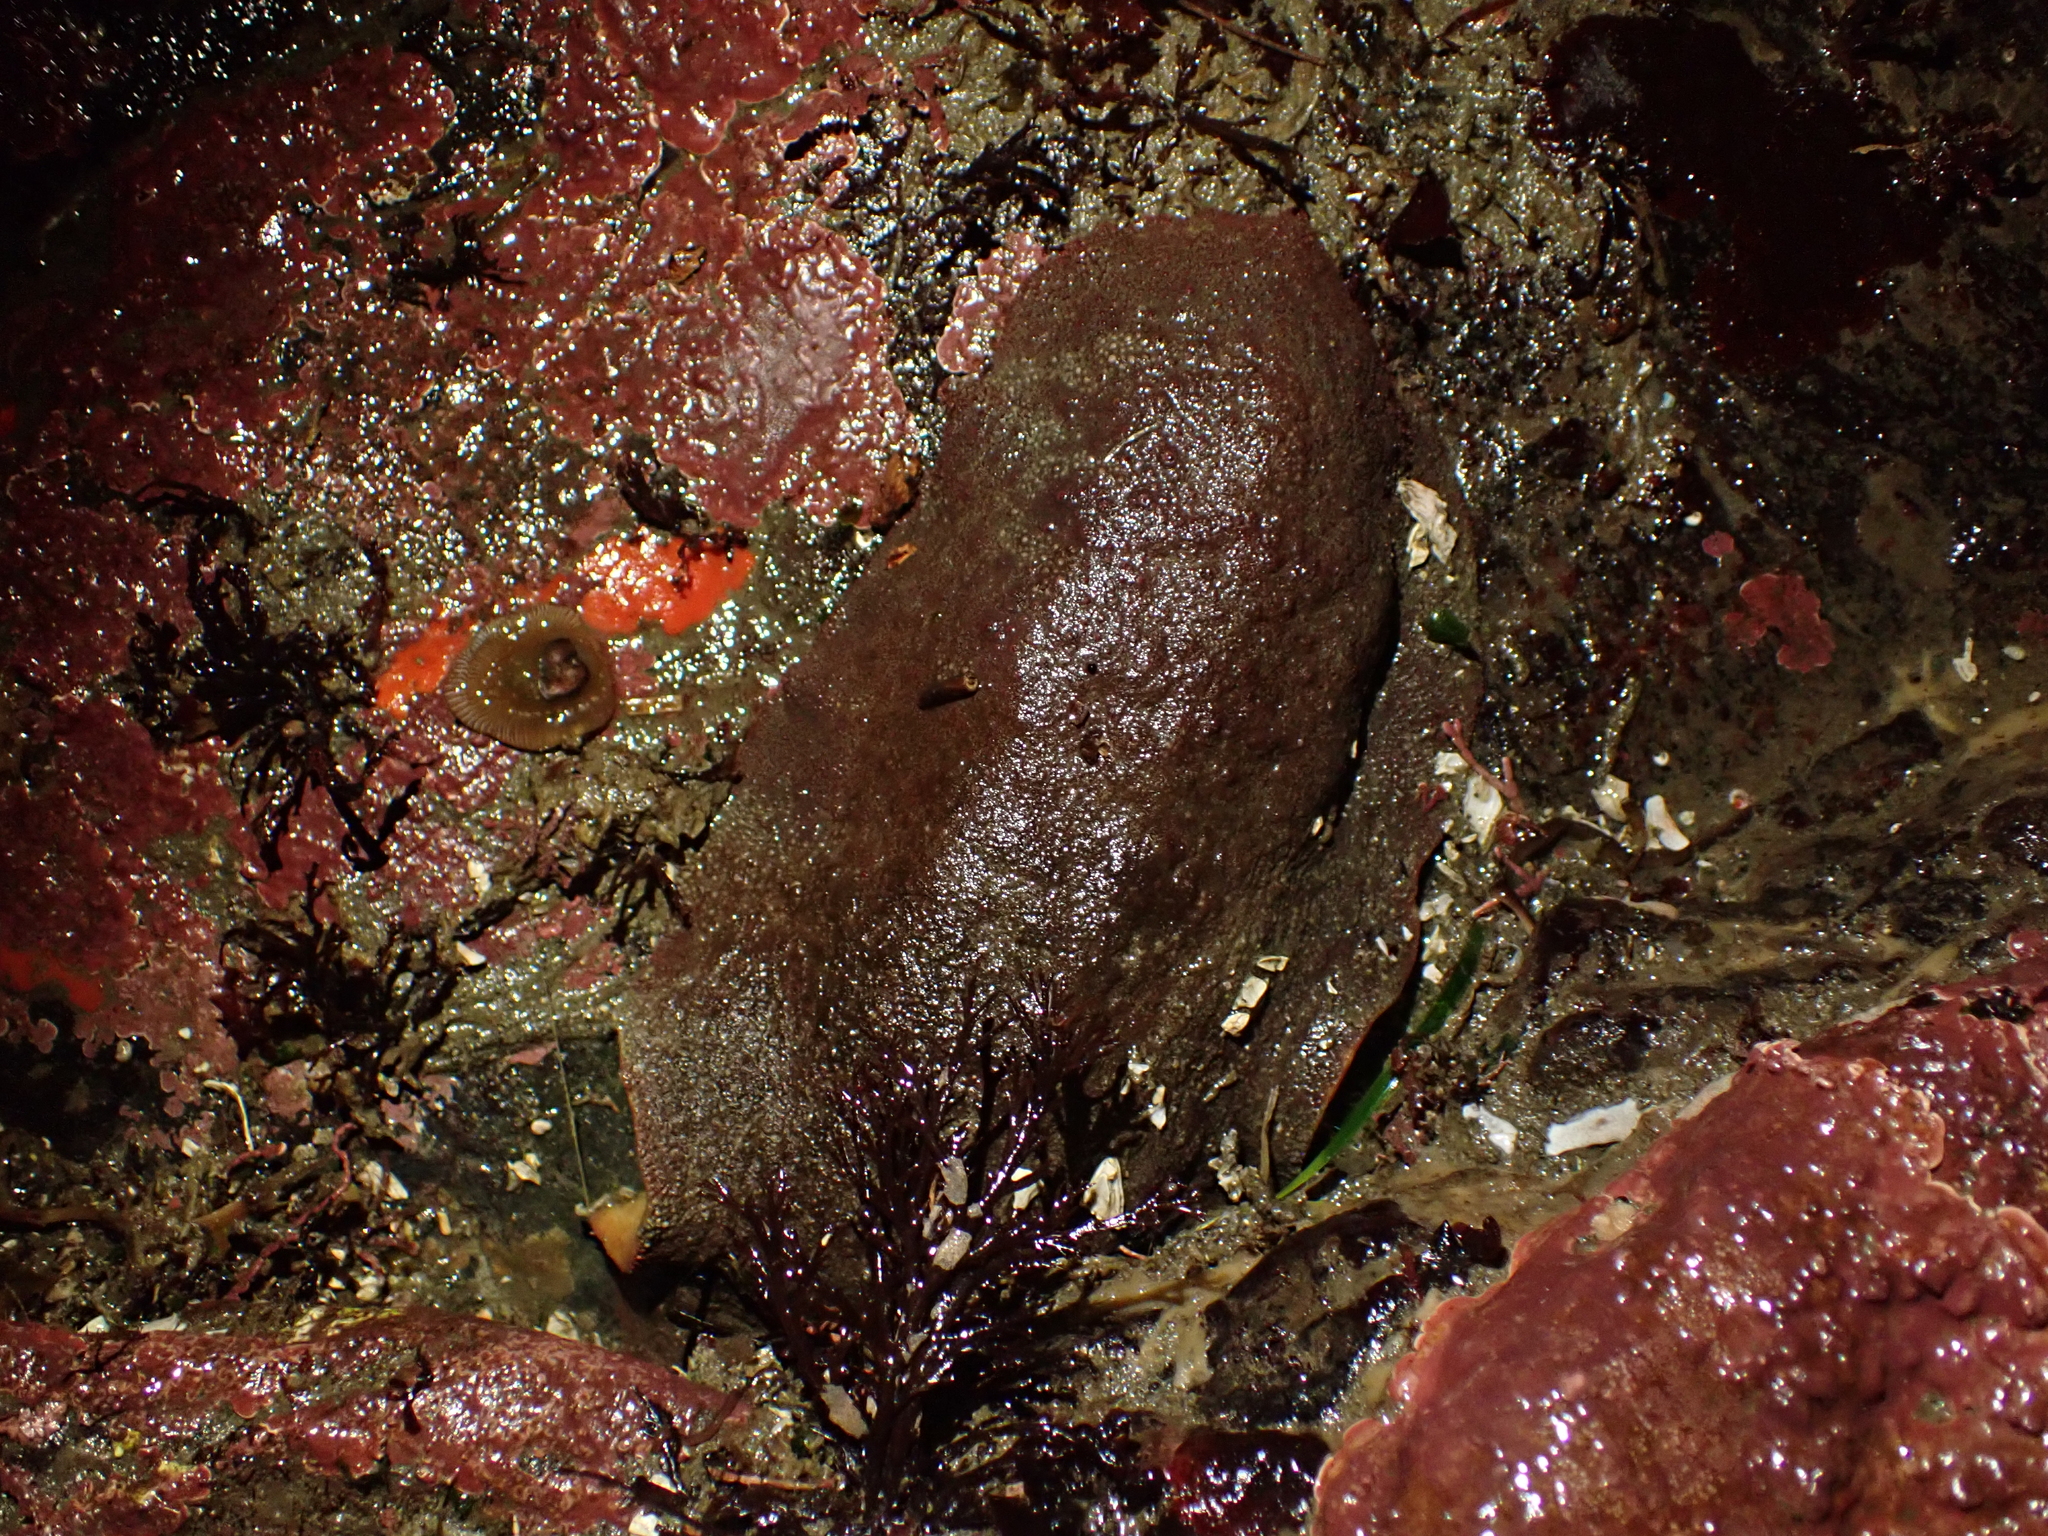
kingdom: Animalia
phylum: Mollusca
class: Polyplacophora
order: Chitonida
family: Acanthochitonidae
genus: Cryptochiton
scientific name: Cryptochiton stelleri
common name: Giant pacific chiton
